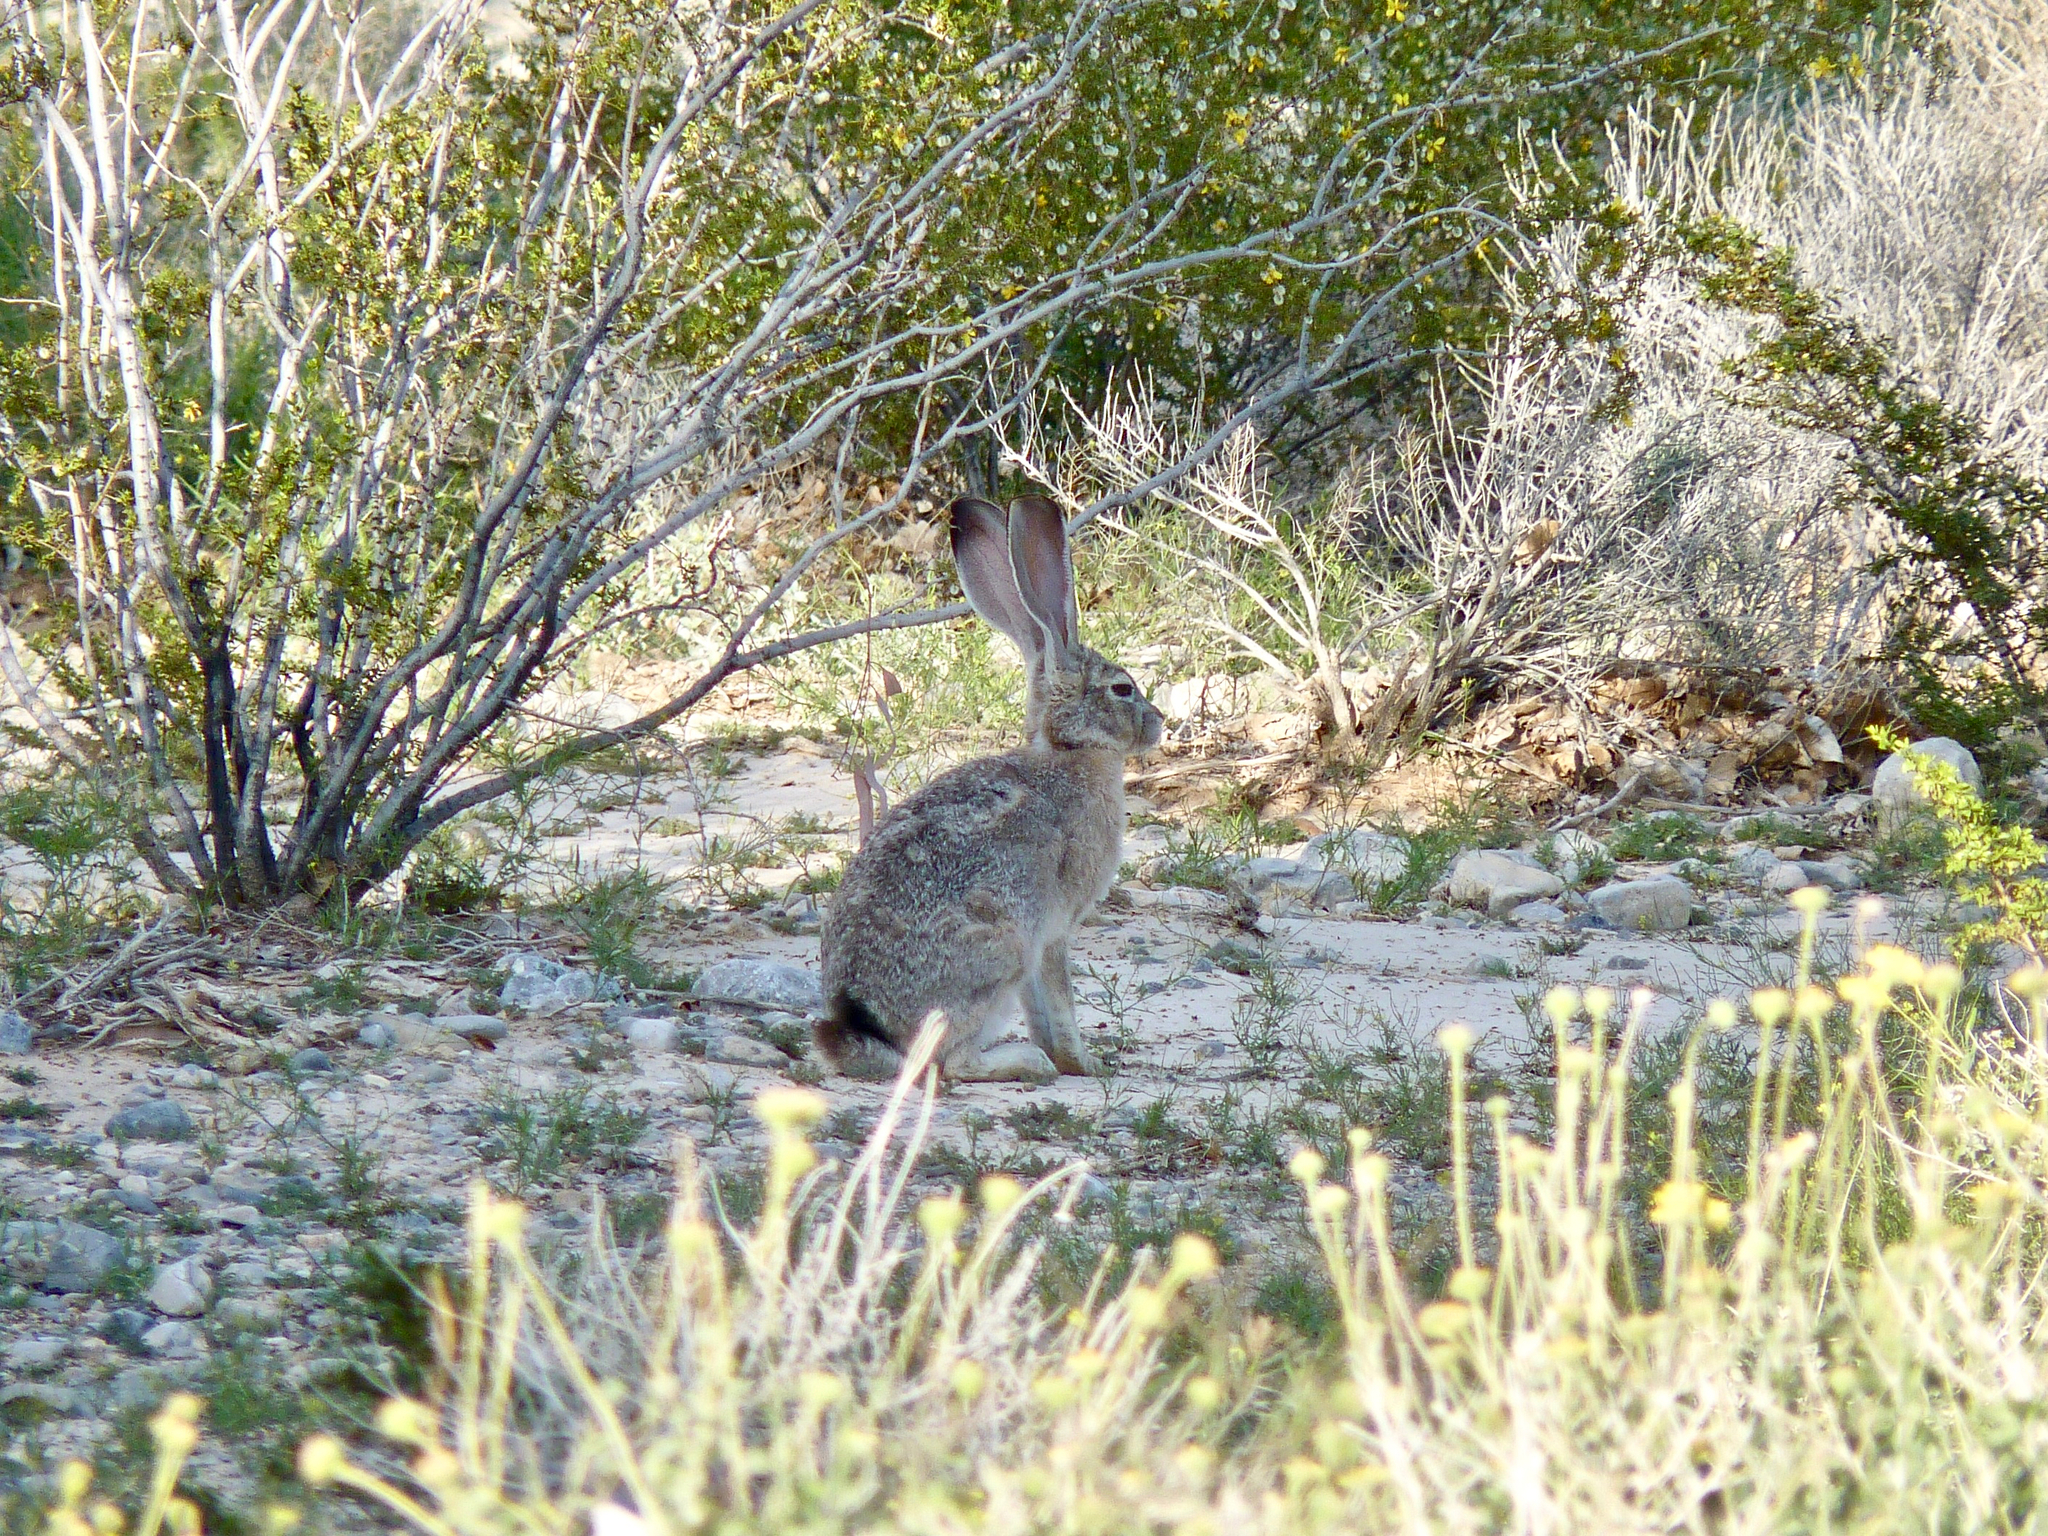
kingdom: Animalia
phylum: Chordata
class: Mammalia
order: Lagomorpha
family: Leporidae
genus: Lepus
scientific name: Lepus californicus
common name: Black-tailed jackrabbit
